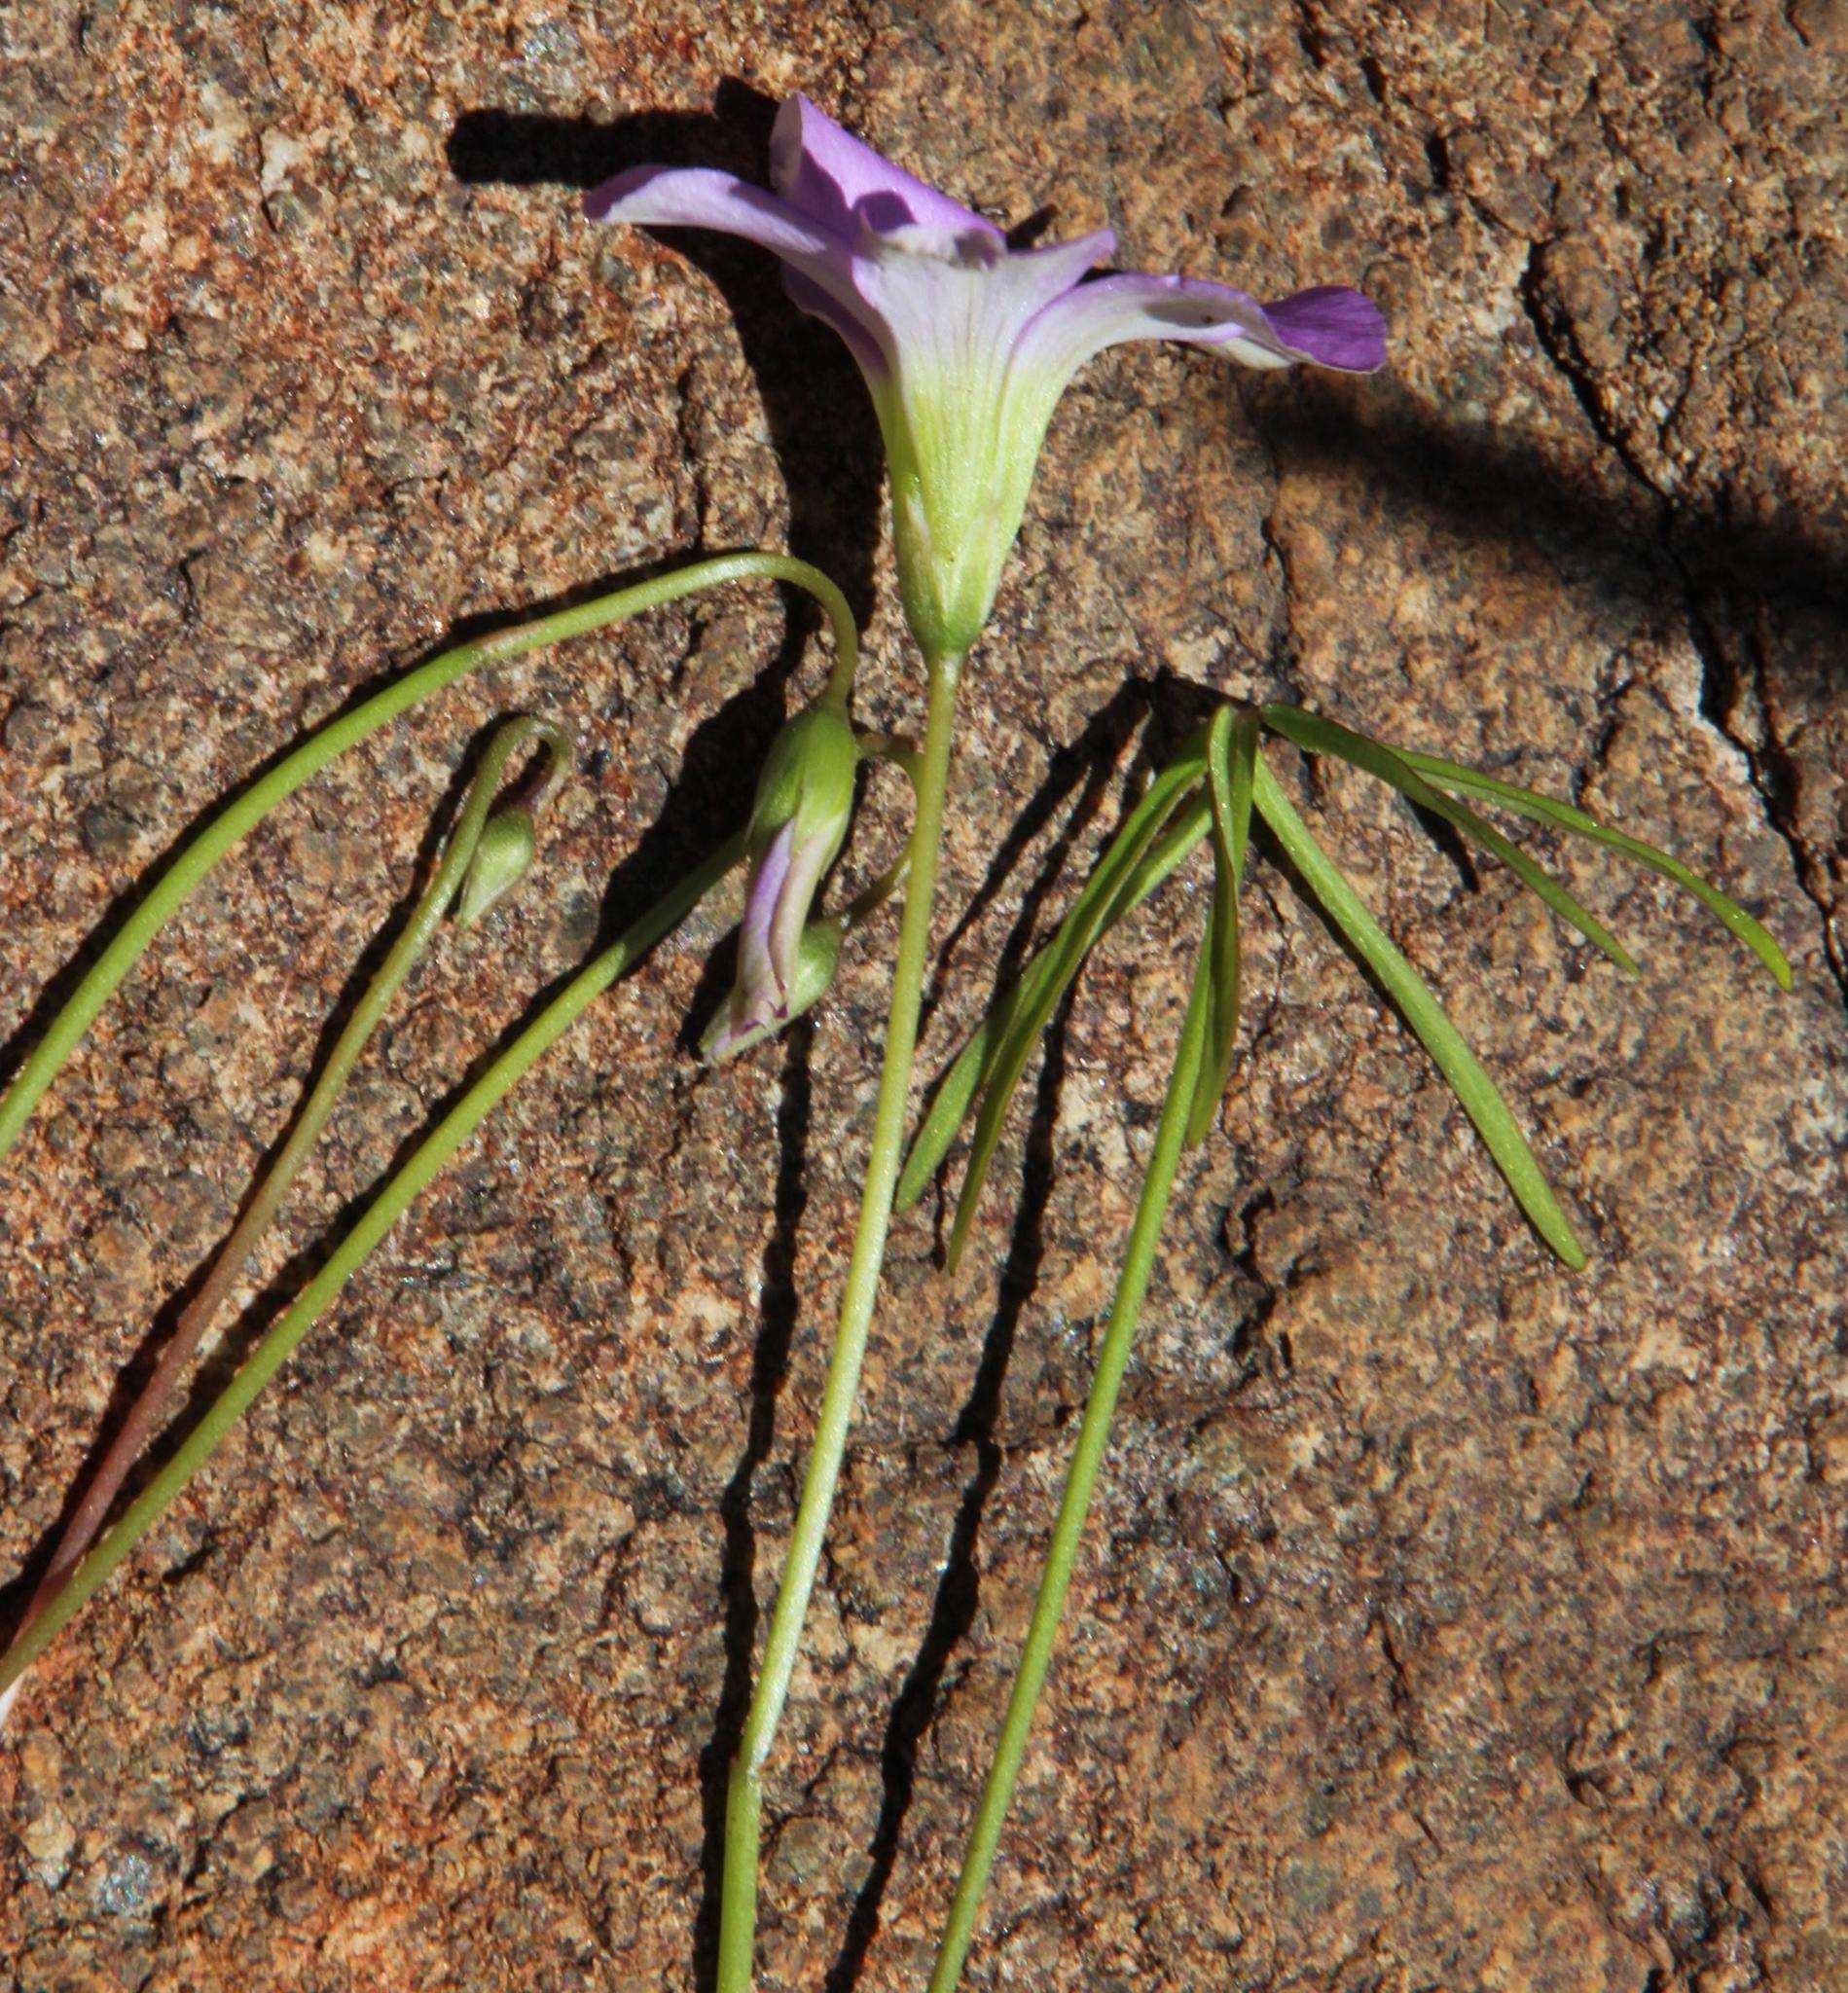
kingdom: Plantae
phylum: Tracheophyta
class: Magnoliopsida
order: Oxalidales
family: Oxalidaceae
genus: Oxalis
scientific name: Oxalis smithiana
